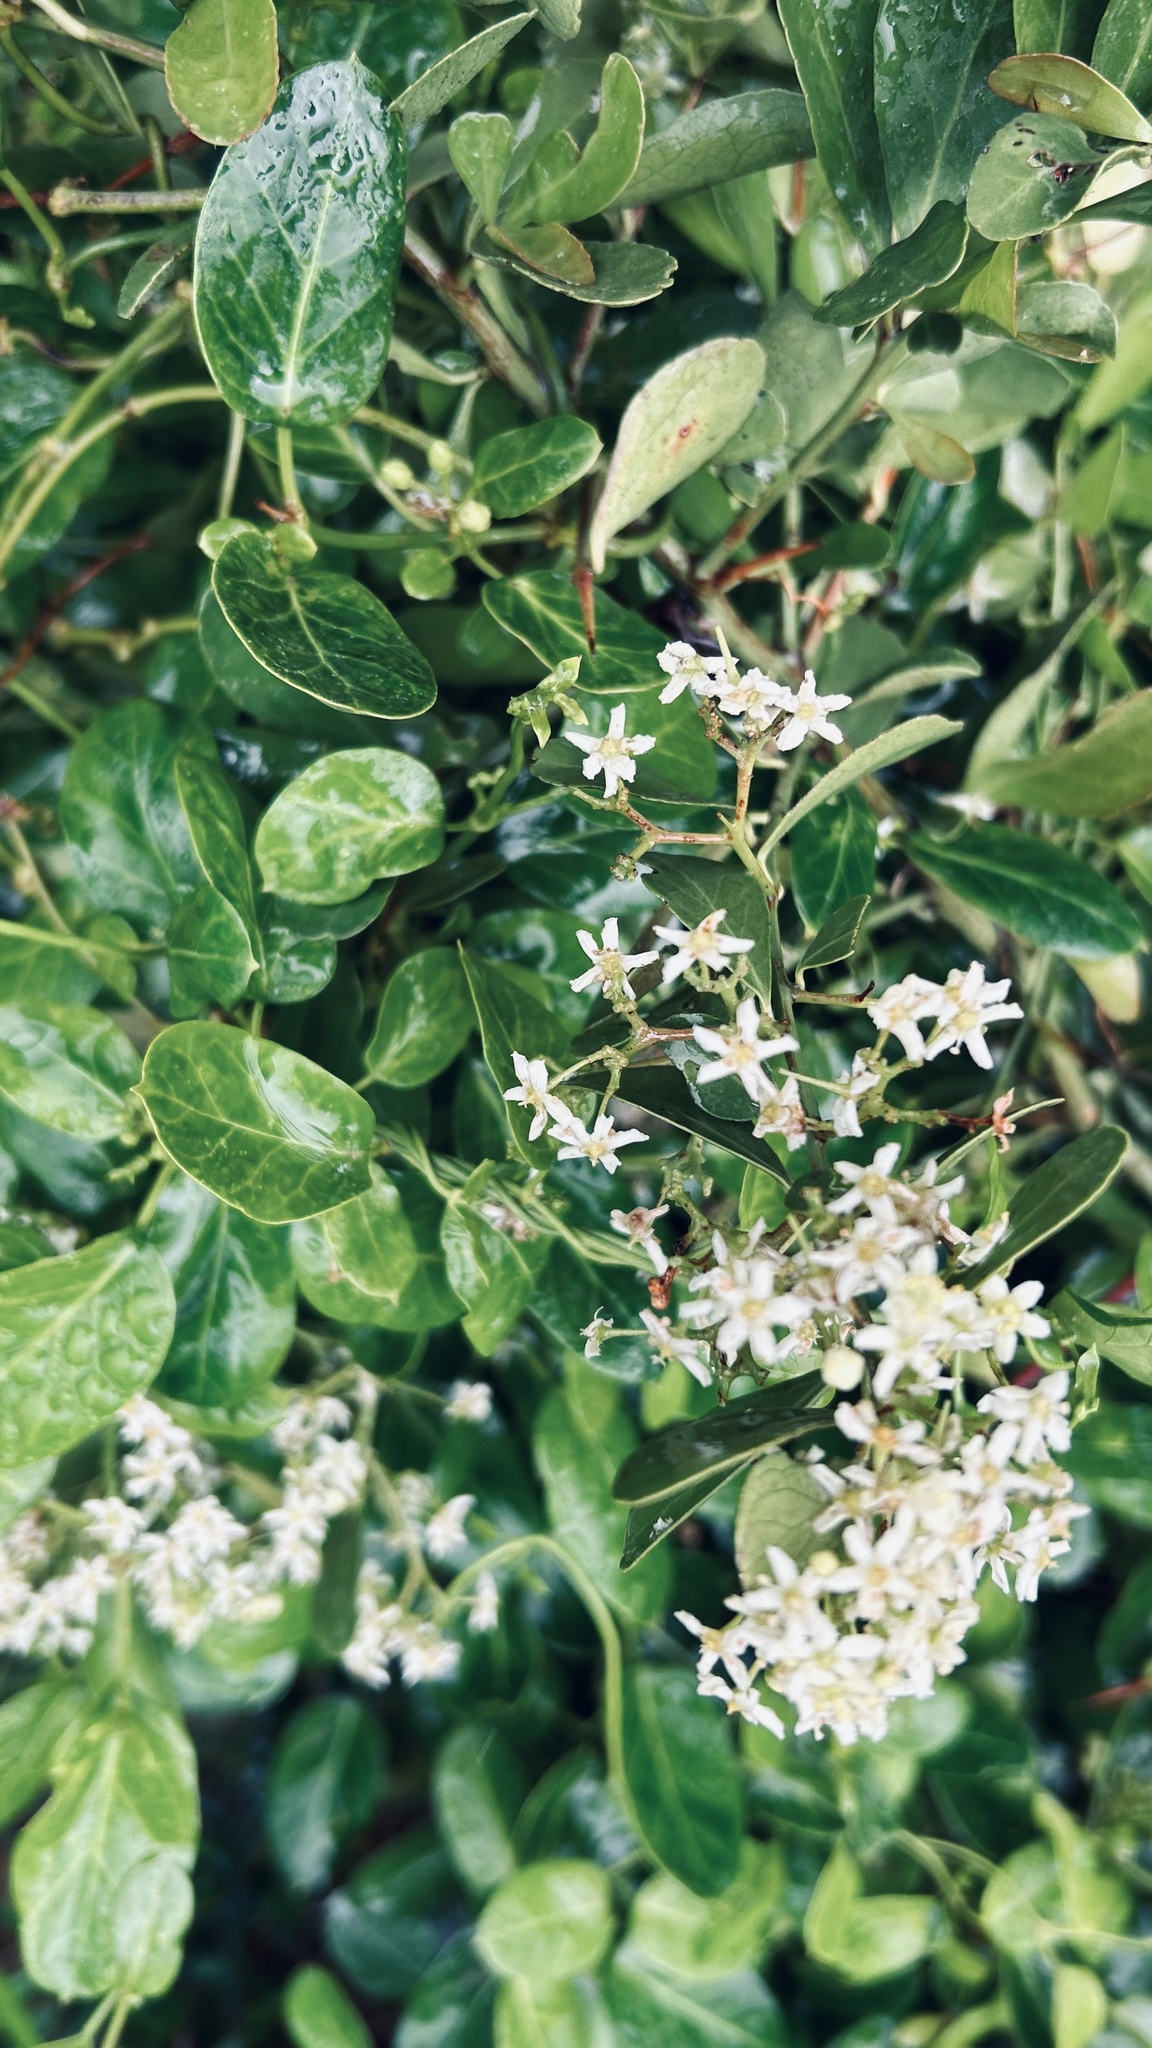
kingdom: Plantae
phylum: Tracheophyta
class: Magnoliopsida
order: Celastrales
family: Celastraceae
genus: Gymnosporia
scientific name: Gymnosporia buxifolia
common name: Common spike-thorn
